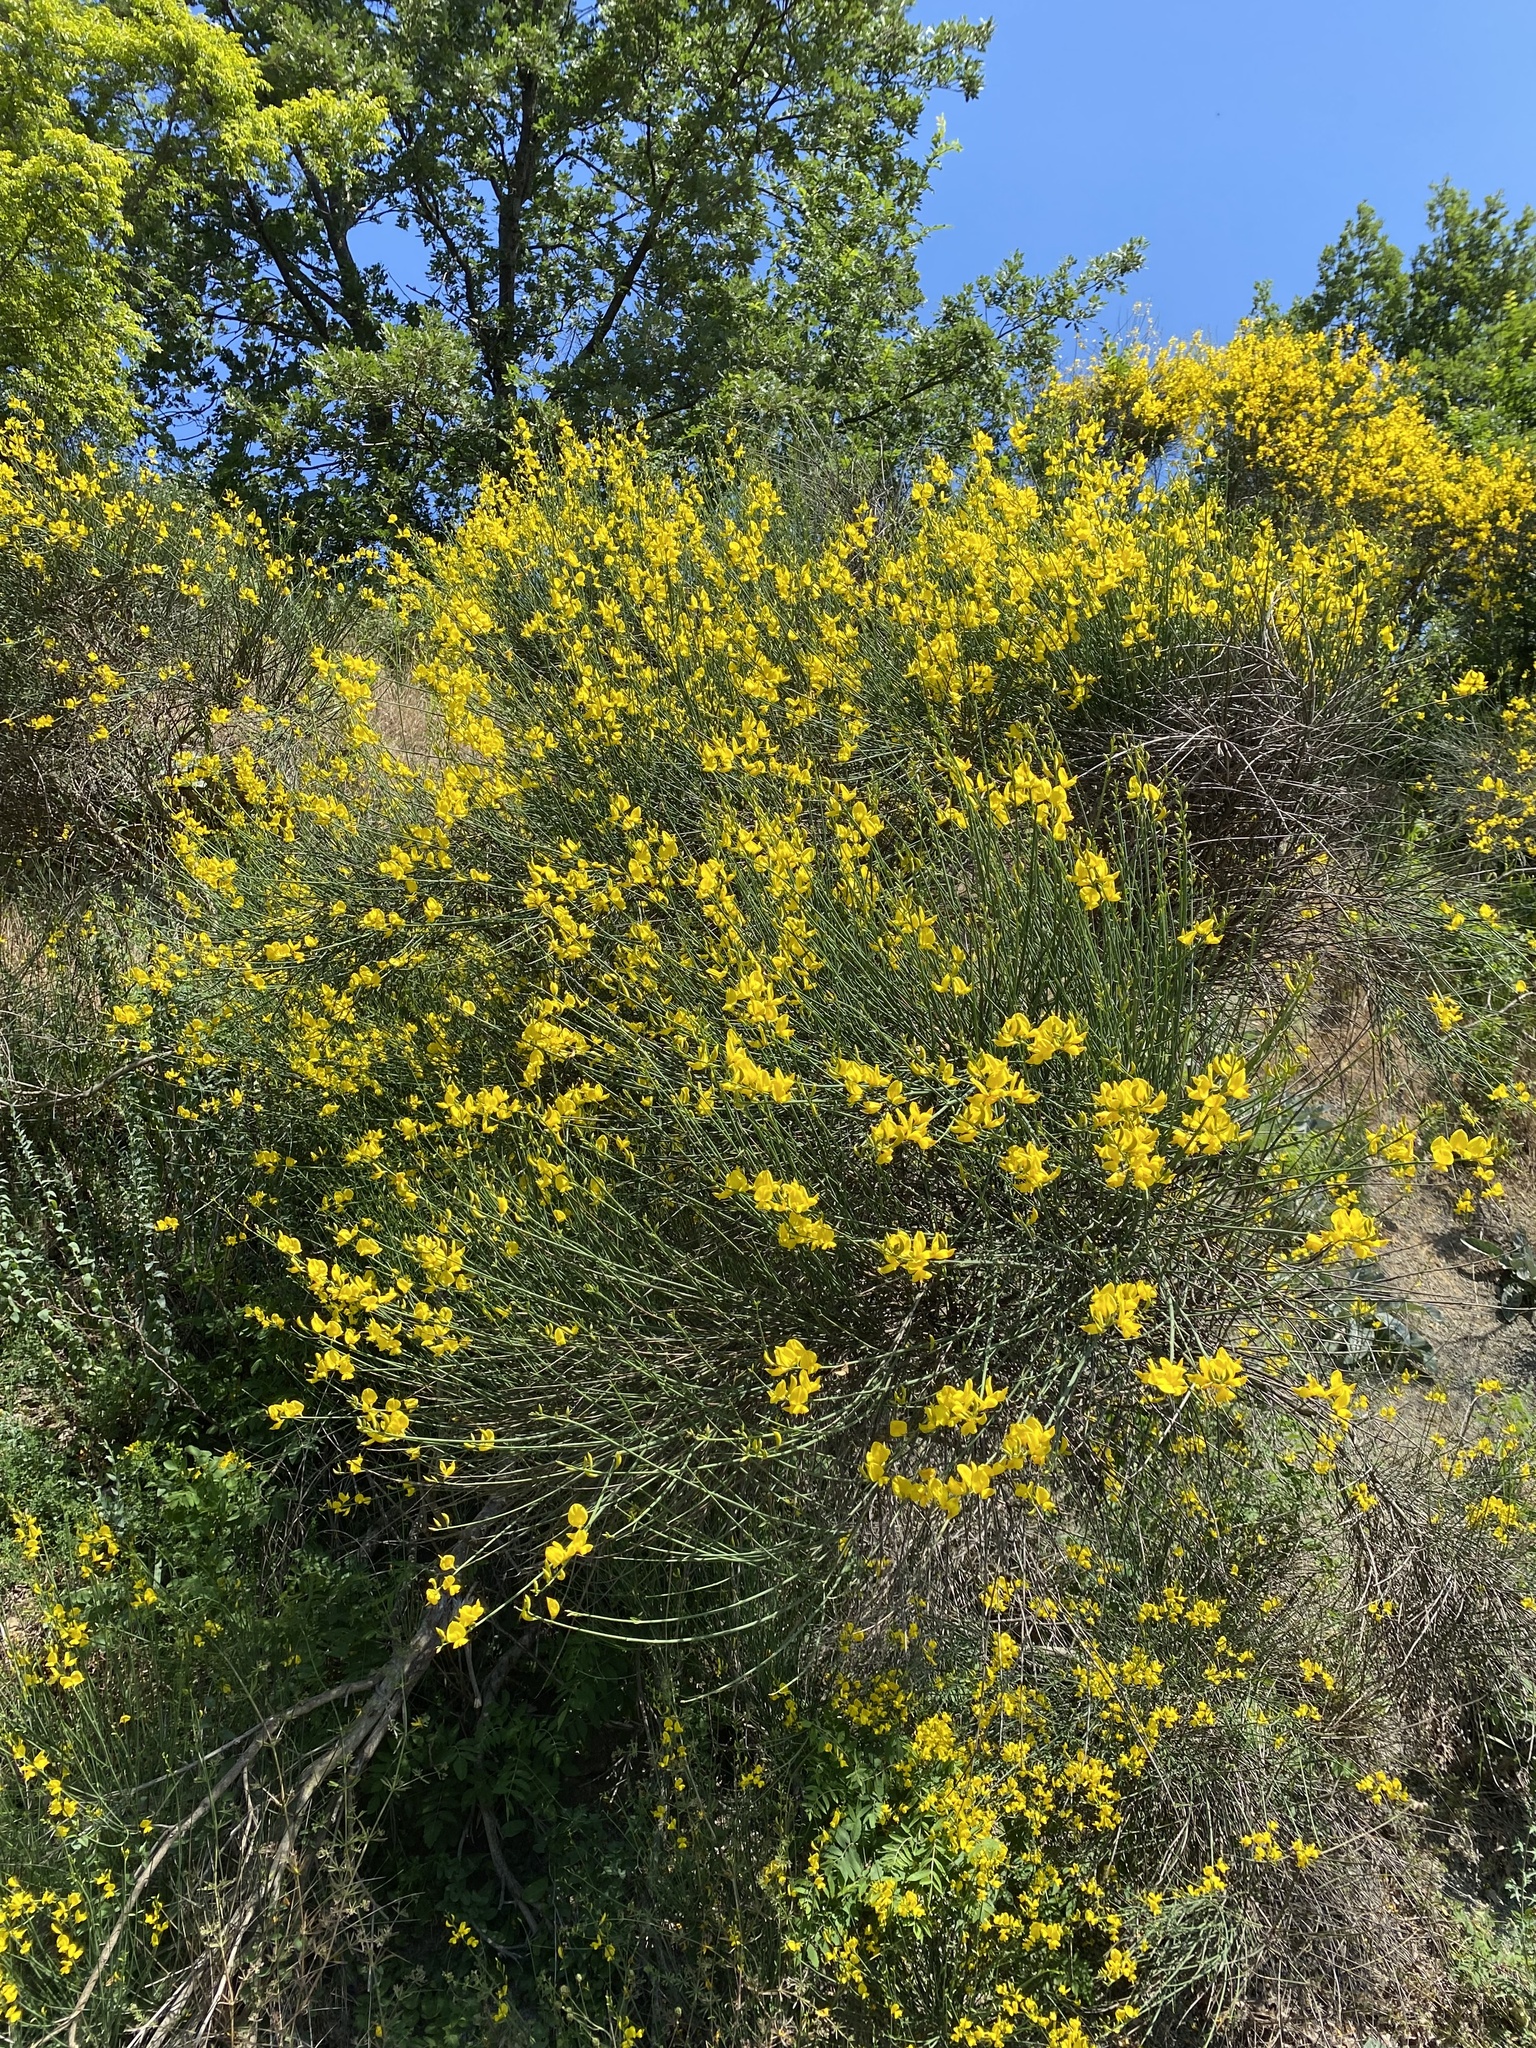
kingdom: Plantae
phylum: Tracheophyta
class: Magnoliopsida
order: Fabales
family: Fabaceae
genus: Spartium
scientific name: Spartium junceum
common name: Spanish broom
